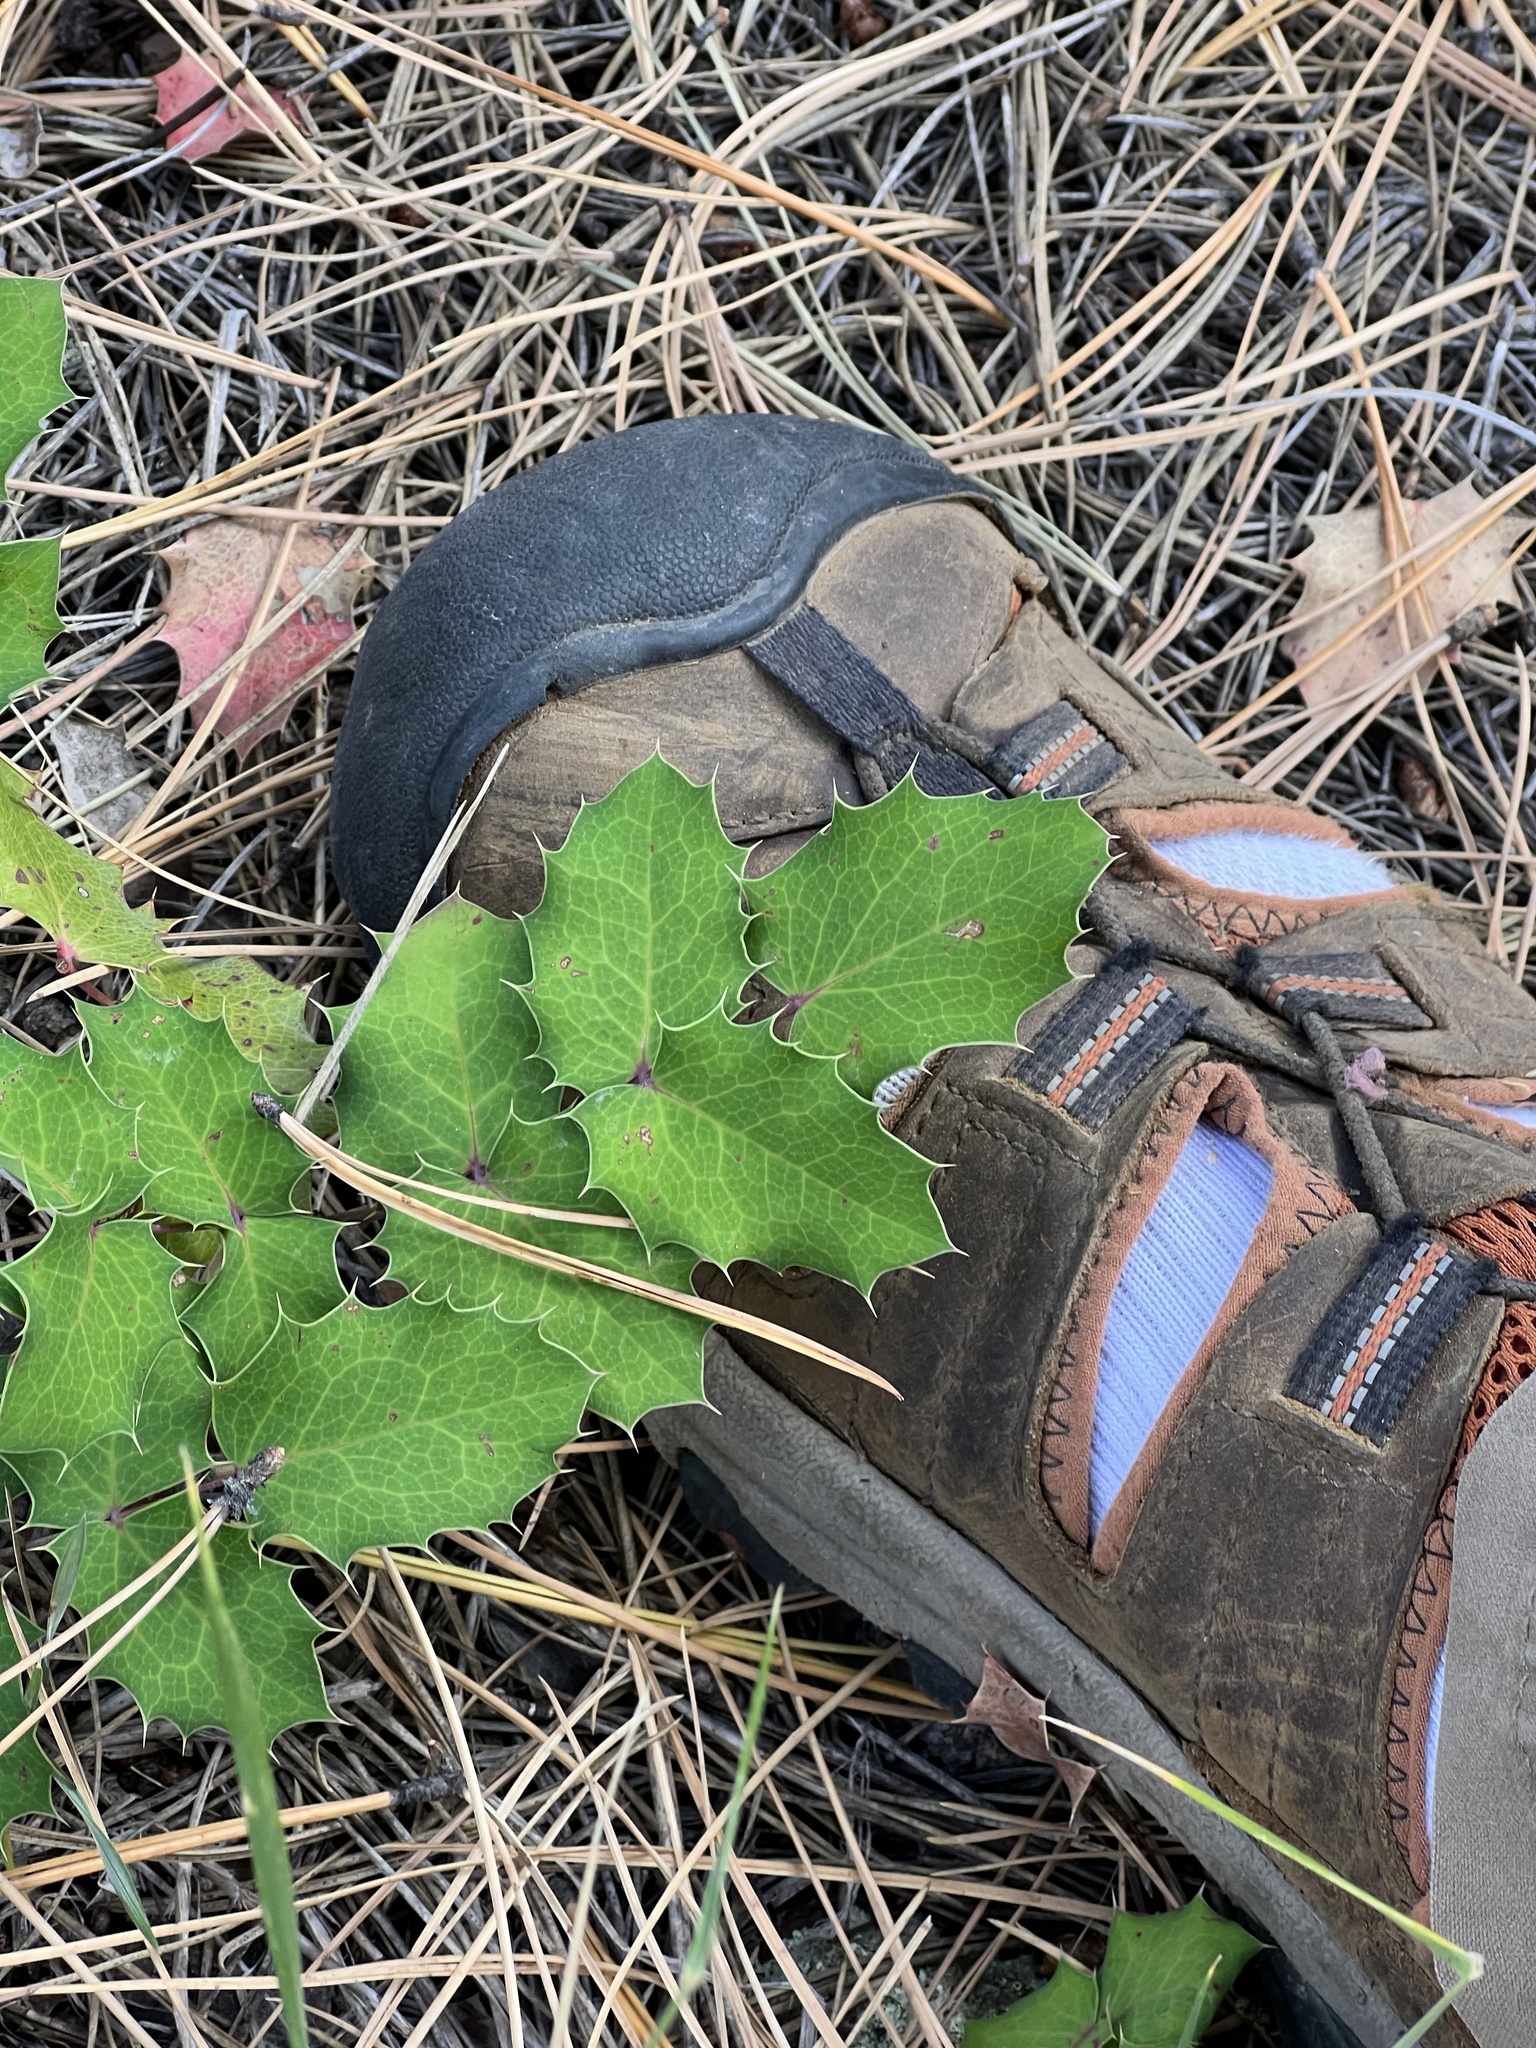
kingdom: Plantae
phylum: Tracheophyta
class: Magnoliopsida
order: Ranunculales
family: Berberidaceae
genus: Mahonia
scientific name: Mahonia repens
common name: Creeping oregon-grape
